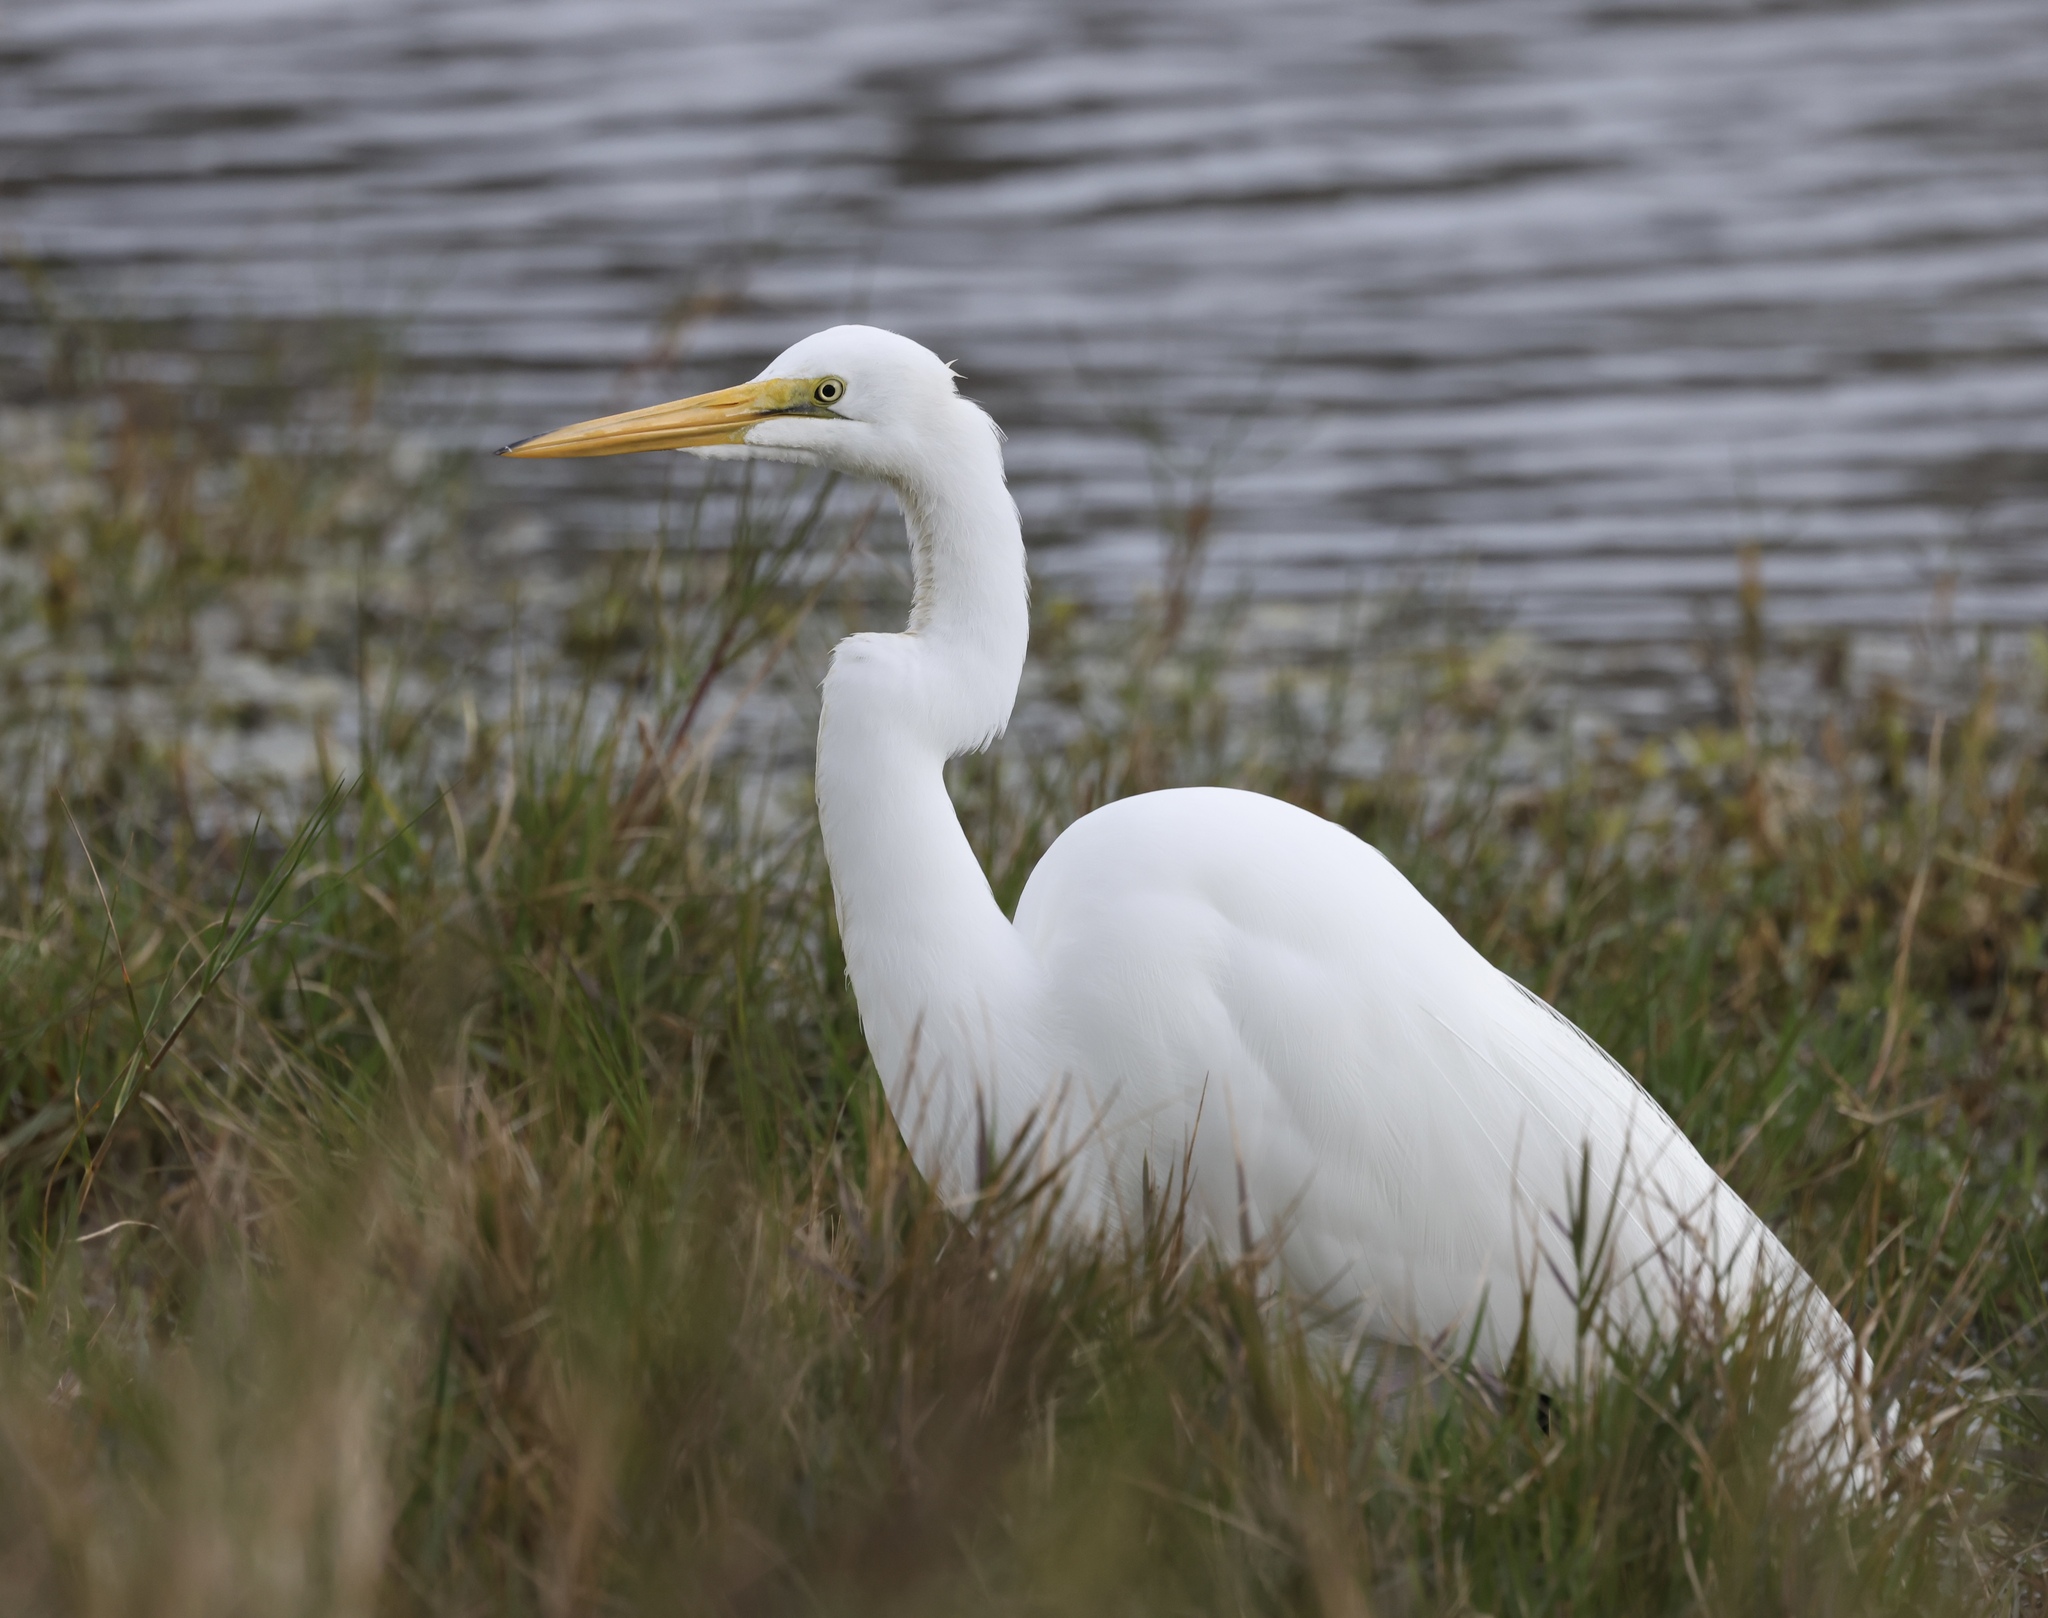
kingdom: Animalia
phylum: Chordata
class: Aves
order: Pelecaniformes
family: Ardeidae
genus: Ardea
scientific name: Ardea alba
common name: Great egret
